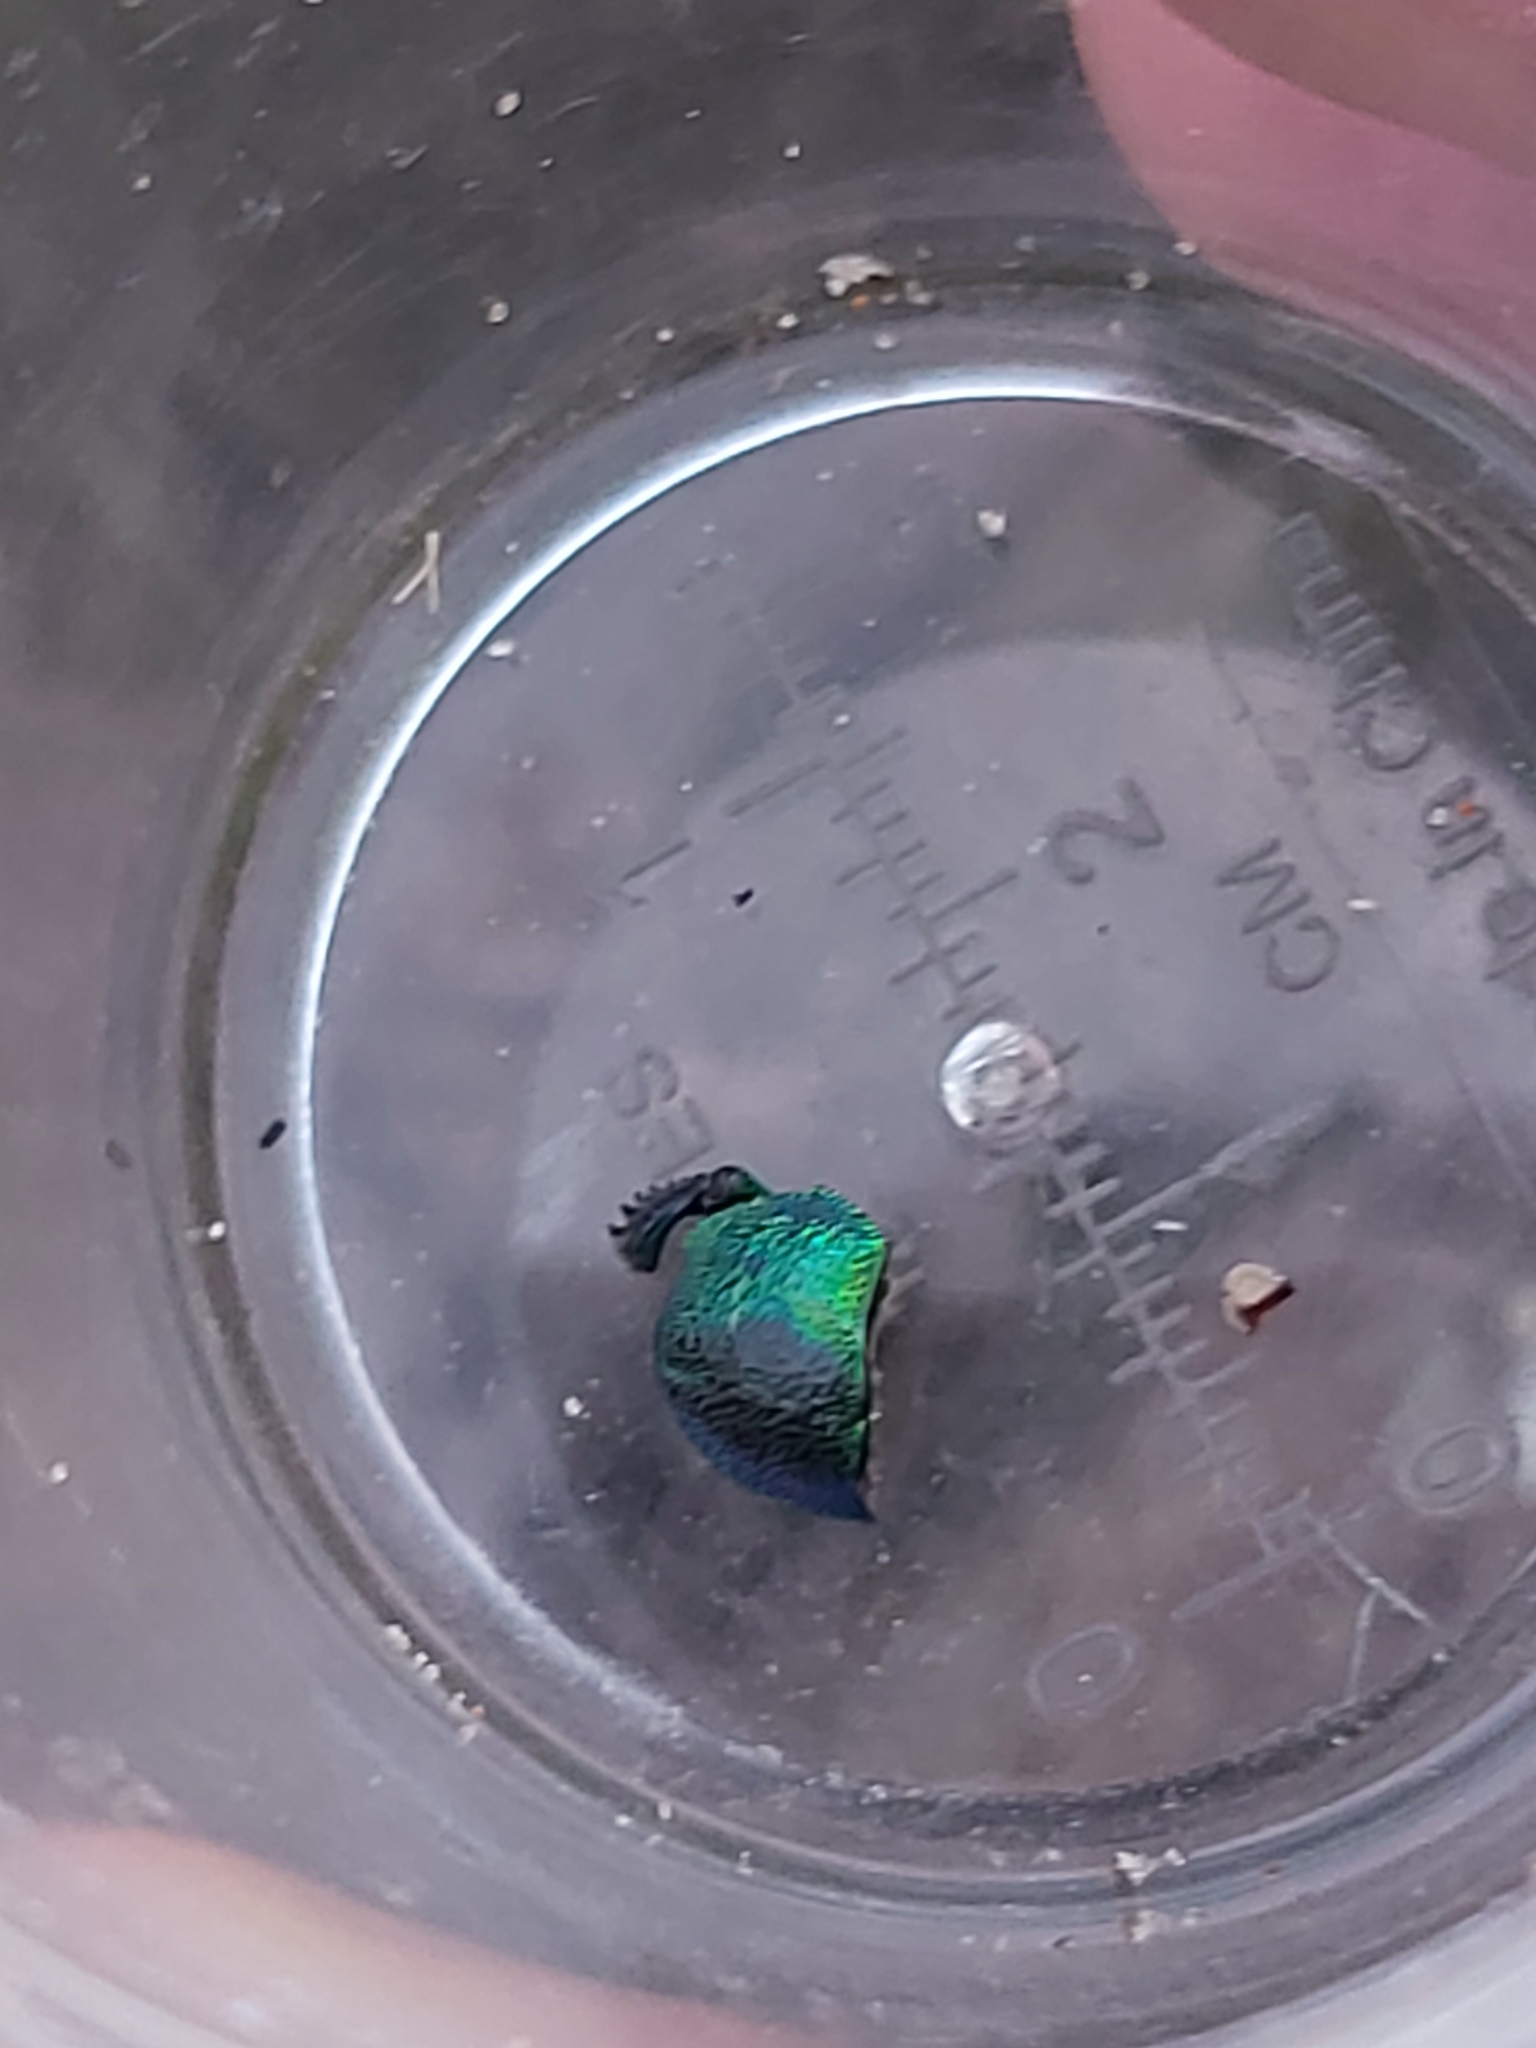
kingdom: Animalia
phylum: Arthropoda
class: Insecta
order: Coleoptera
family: Lucanidae
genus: Lamprima
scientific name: Lamprima aurata
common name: Golden stag beetle
